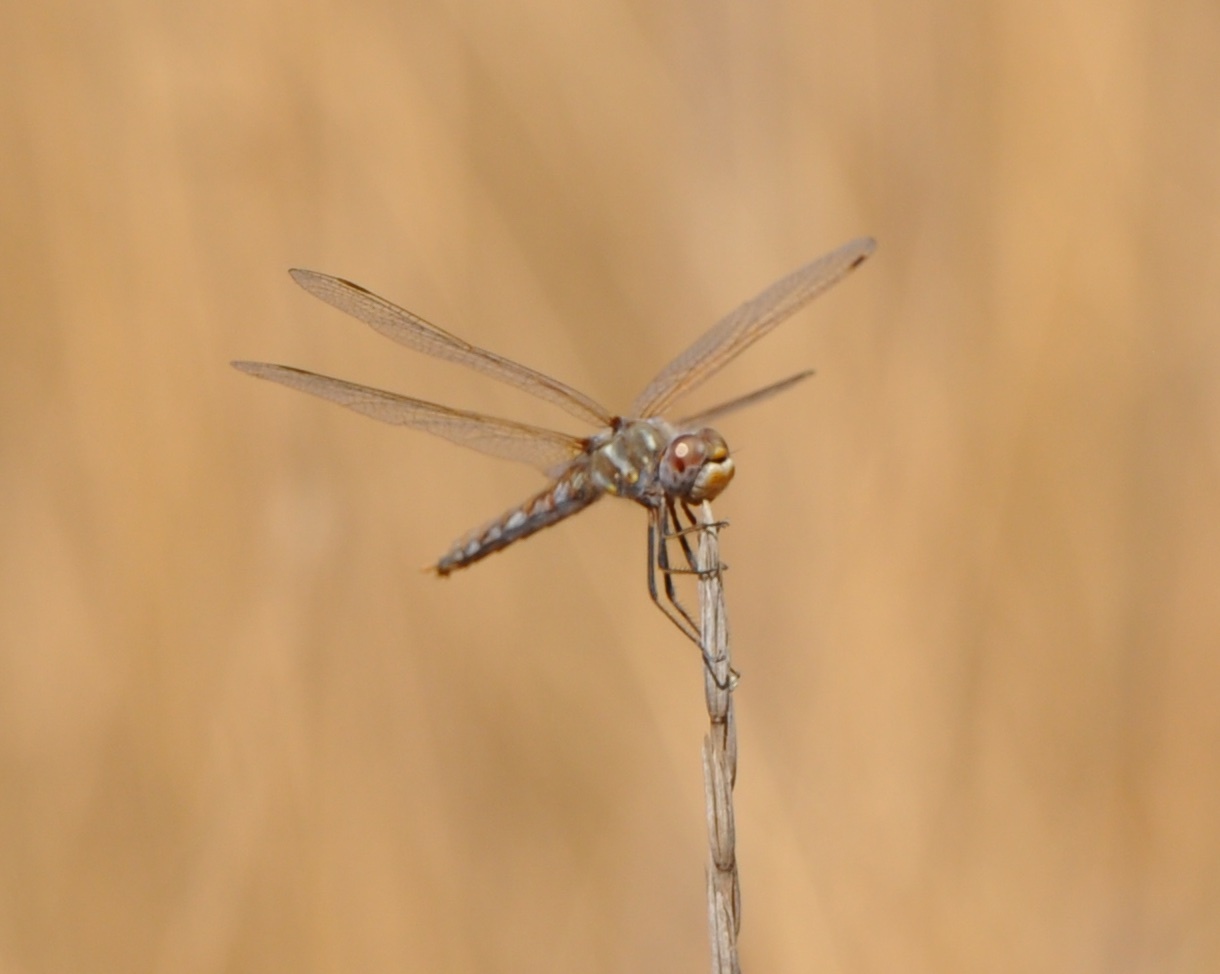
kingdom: Animalia
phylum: Arthropoda
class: Insecta
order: Odonata
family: Libellulidae
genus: Sympetrum
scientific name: Sympetrum corruptum
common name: Variegated meadowhawk
